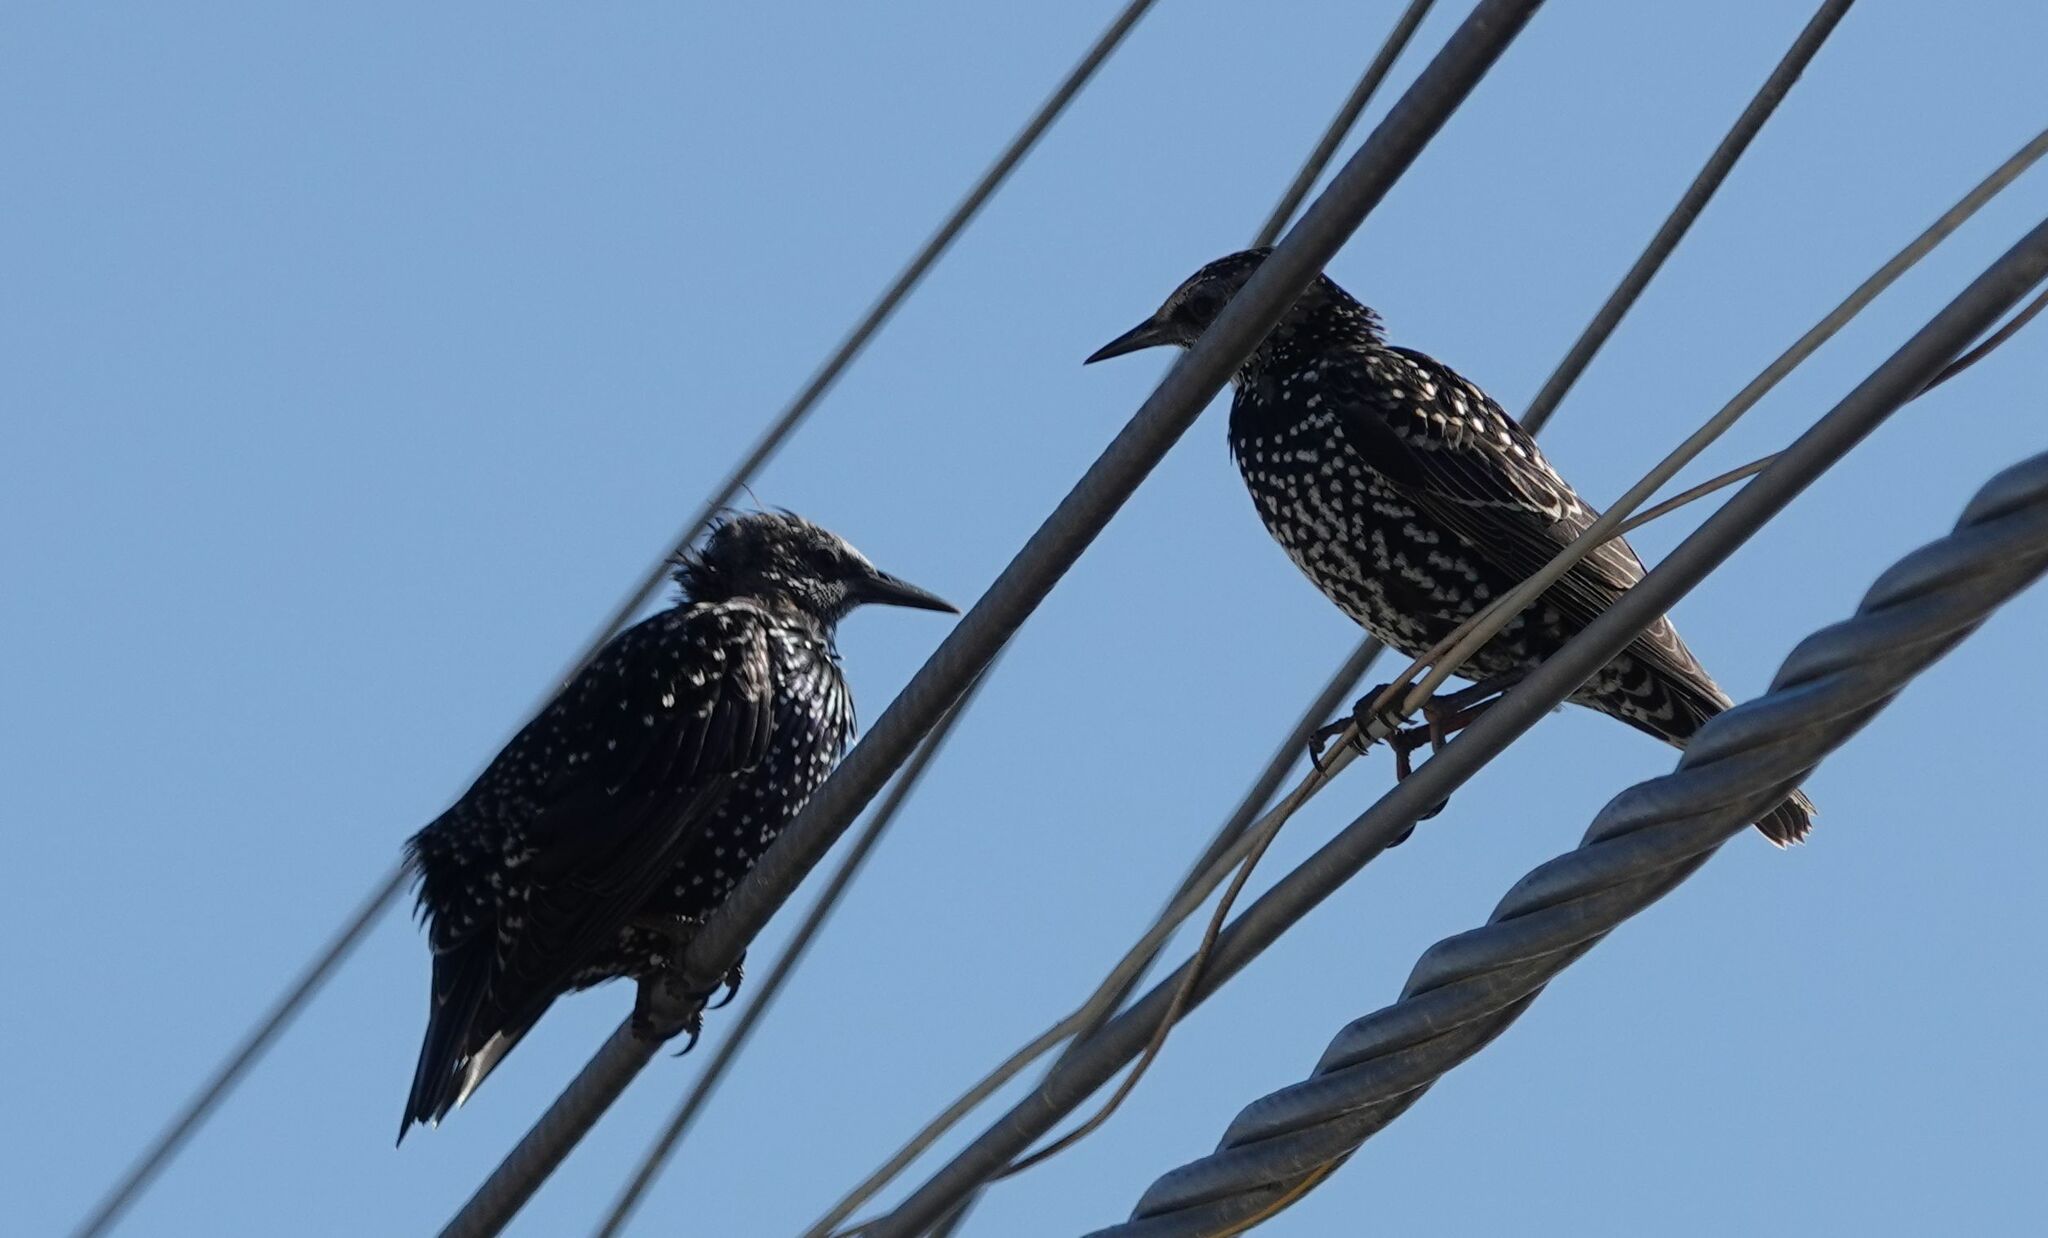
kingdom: Animalia
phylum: Chordata
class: Aves
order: Passeriformes
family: Sturnidae
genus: Sturnus
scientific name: Sturnus vulgaris
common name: Common starling
